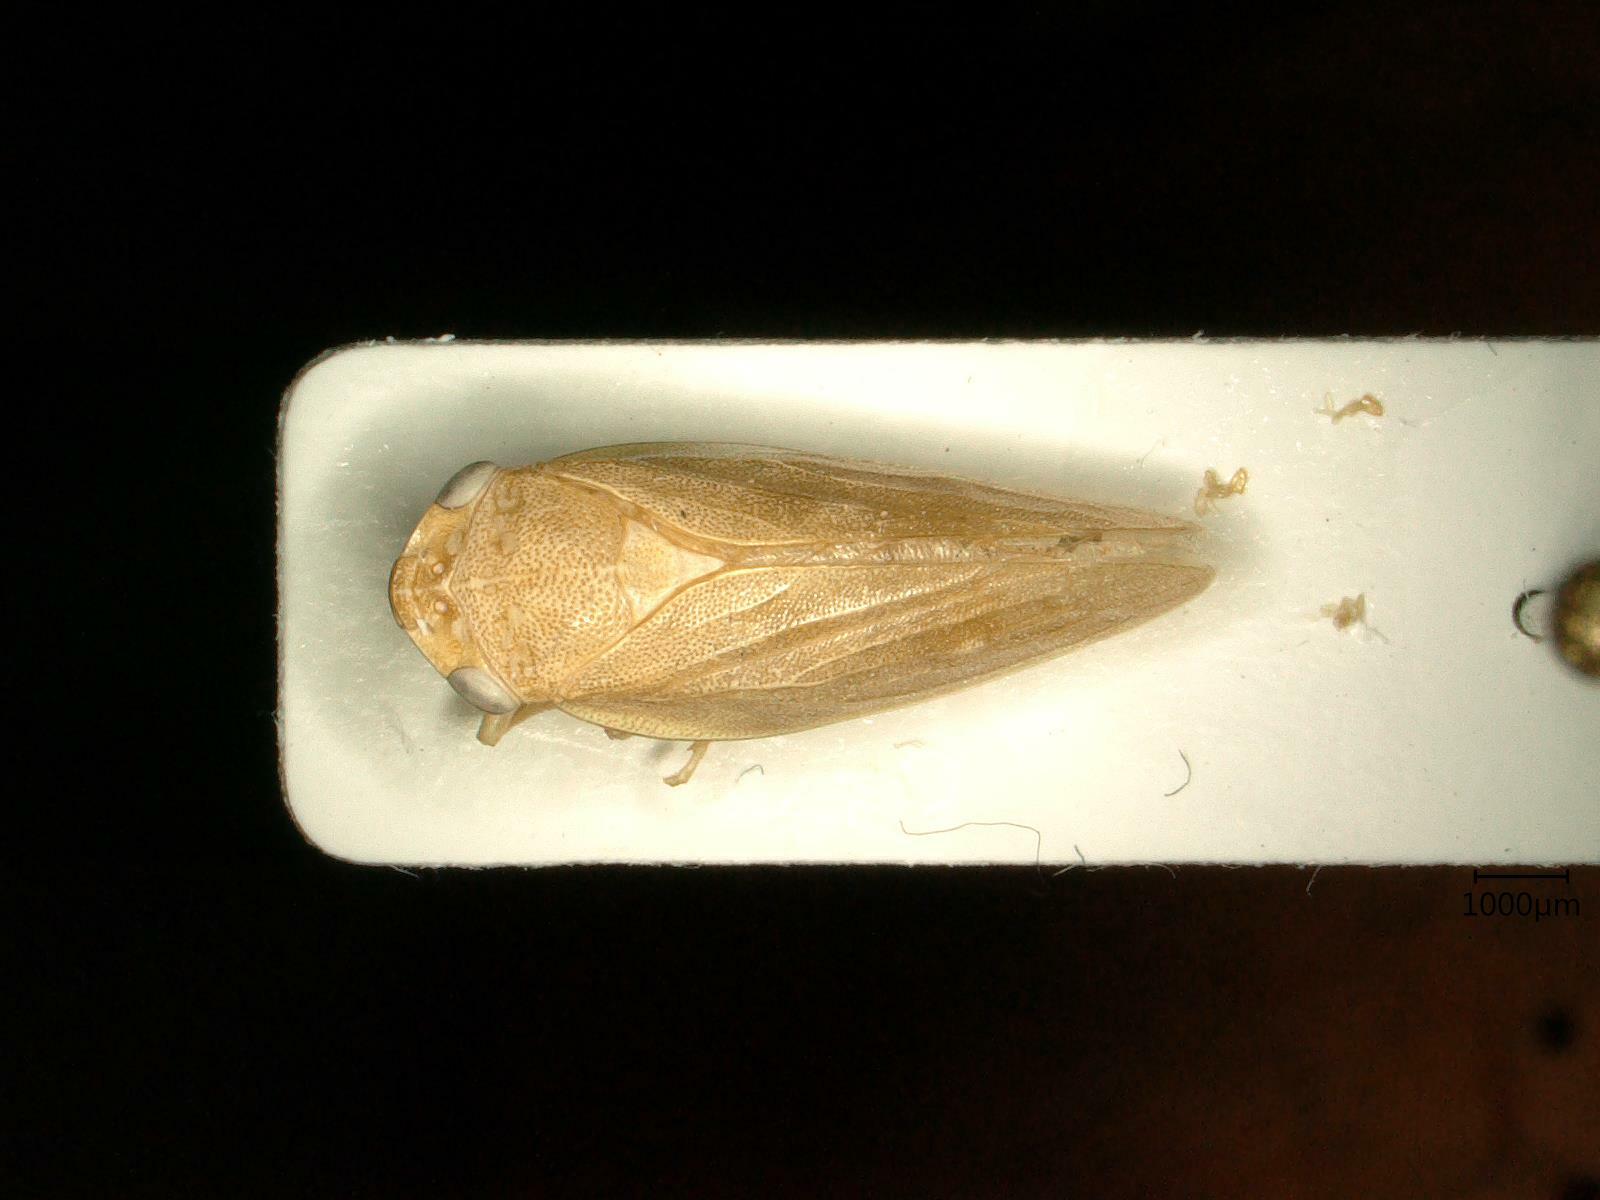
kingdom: Animalia
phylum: Arthropoda
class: Insecta
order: Hemiptera
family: Aphrophoridae
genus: Aphrophora
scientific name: Aphrophora major
